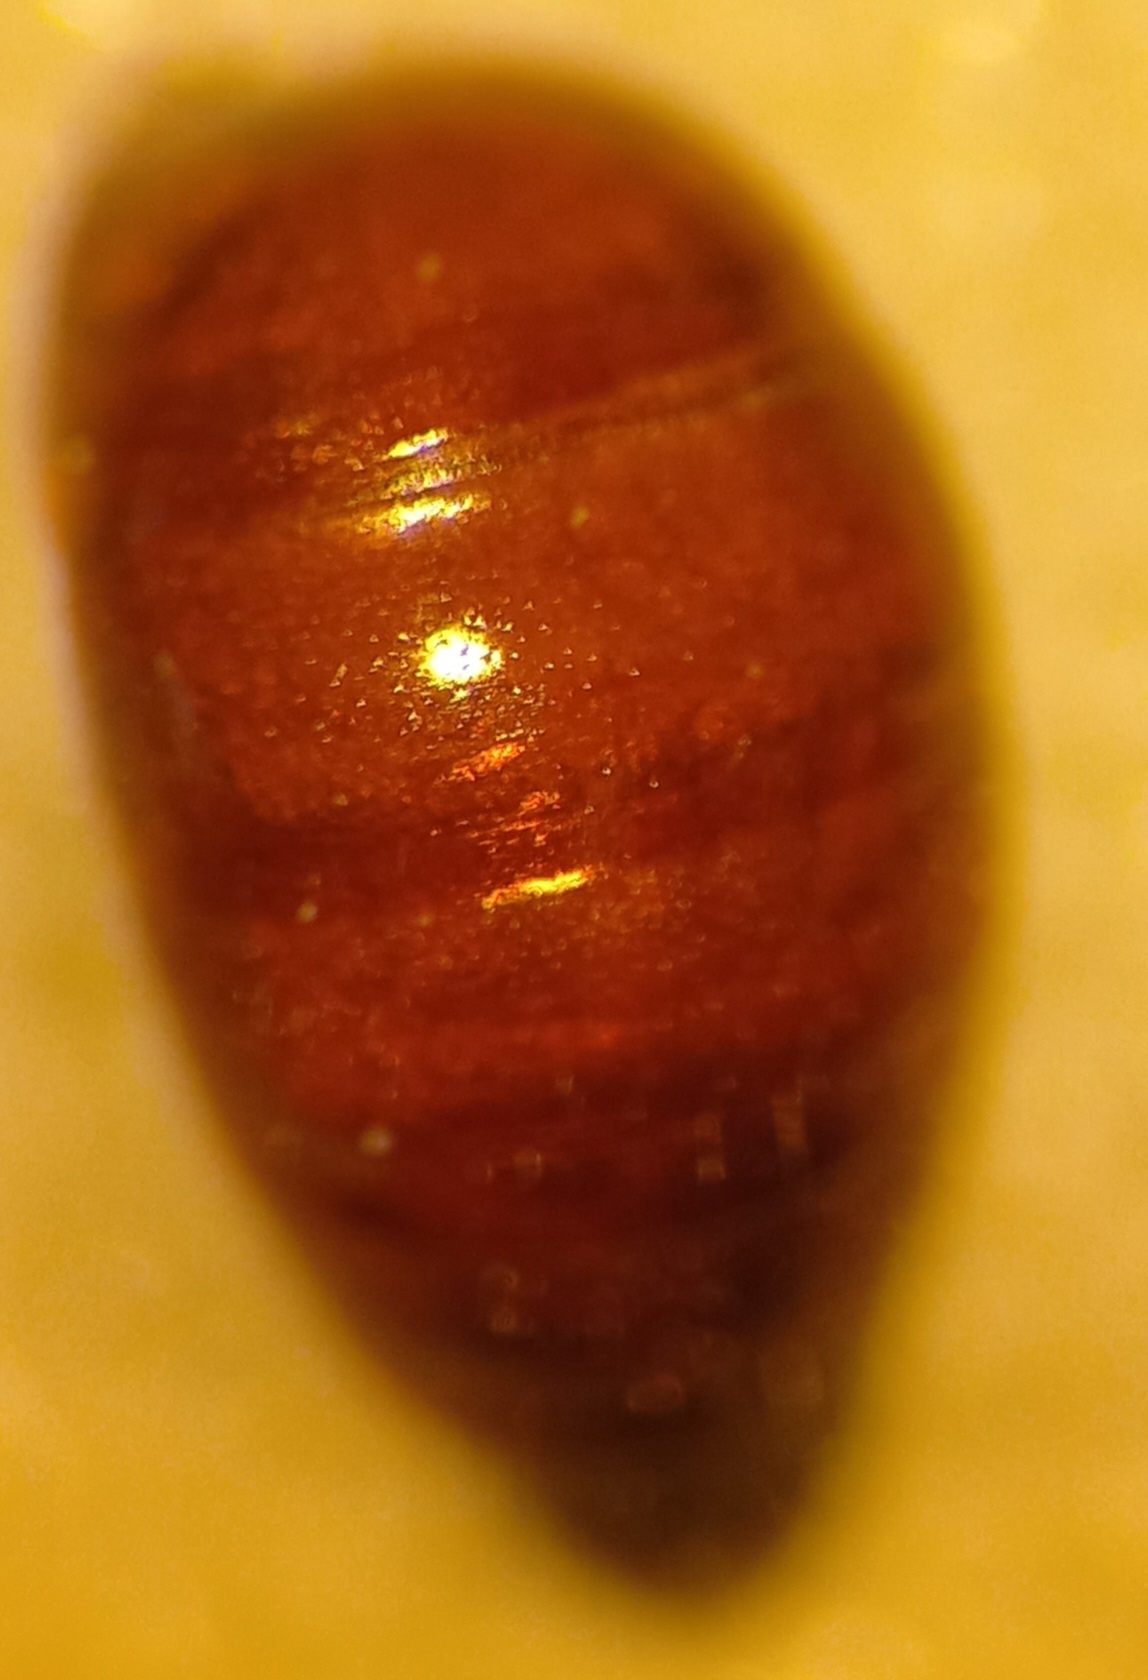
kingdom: Animalia
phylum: Arthropoda
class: Insecta
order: Hymenoptera
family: Halictidae
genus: Sphecodes
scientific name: Sphecodes majalis
